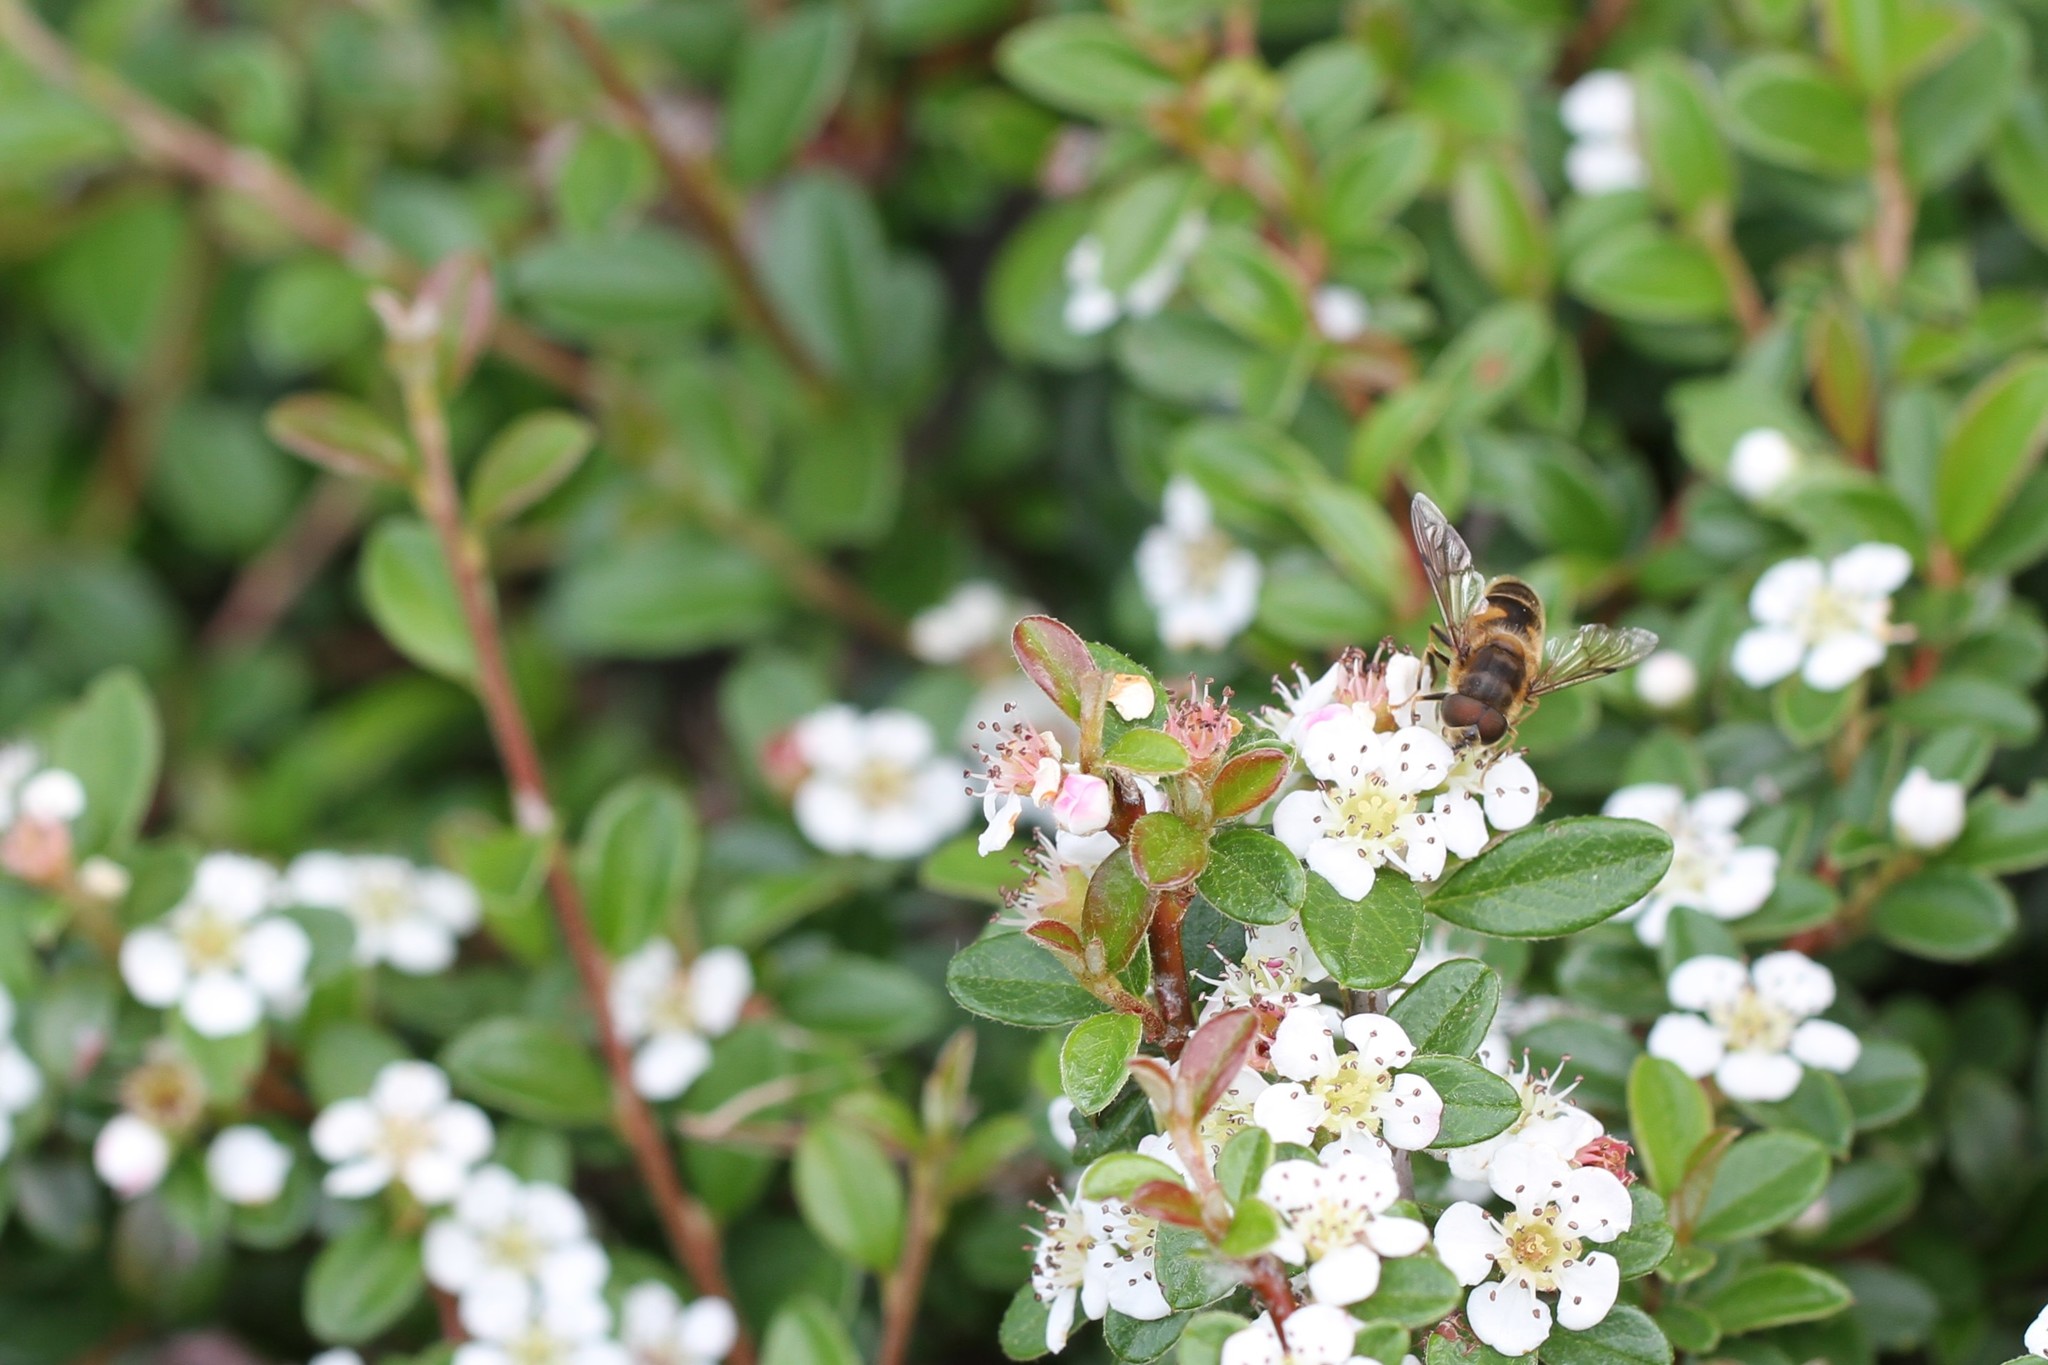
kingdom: Animalia
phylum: Arthropoda
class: Insecta
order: Diptera
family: Syrphidae
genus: Eristalis
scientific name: Eristalis pertinax
